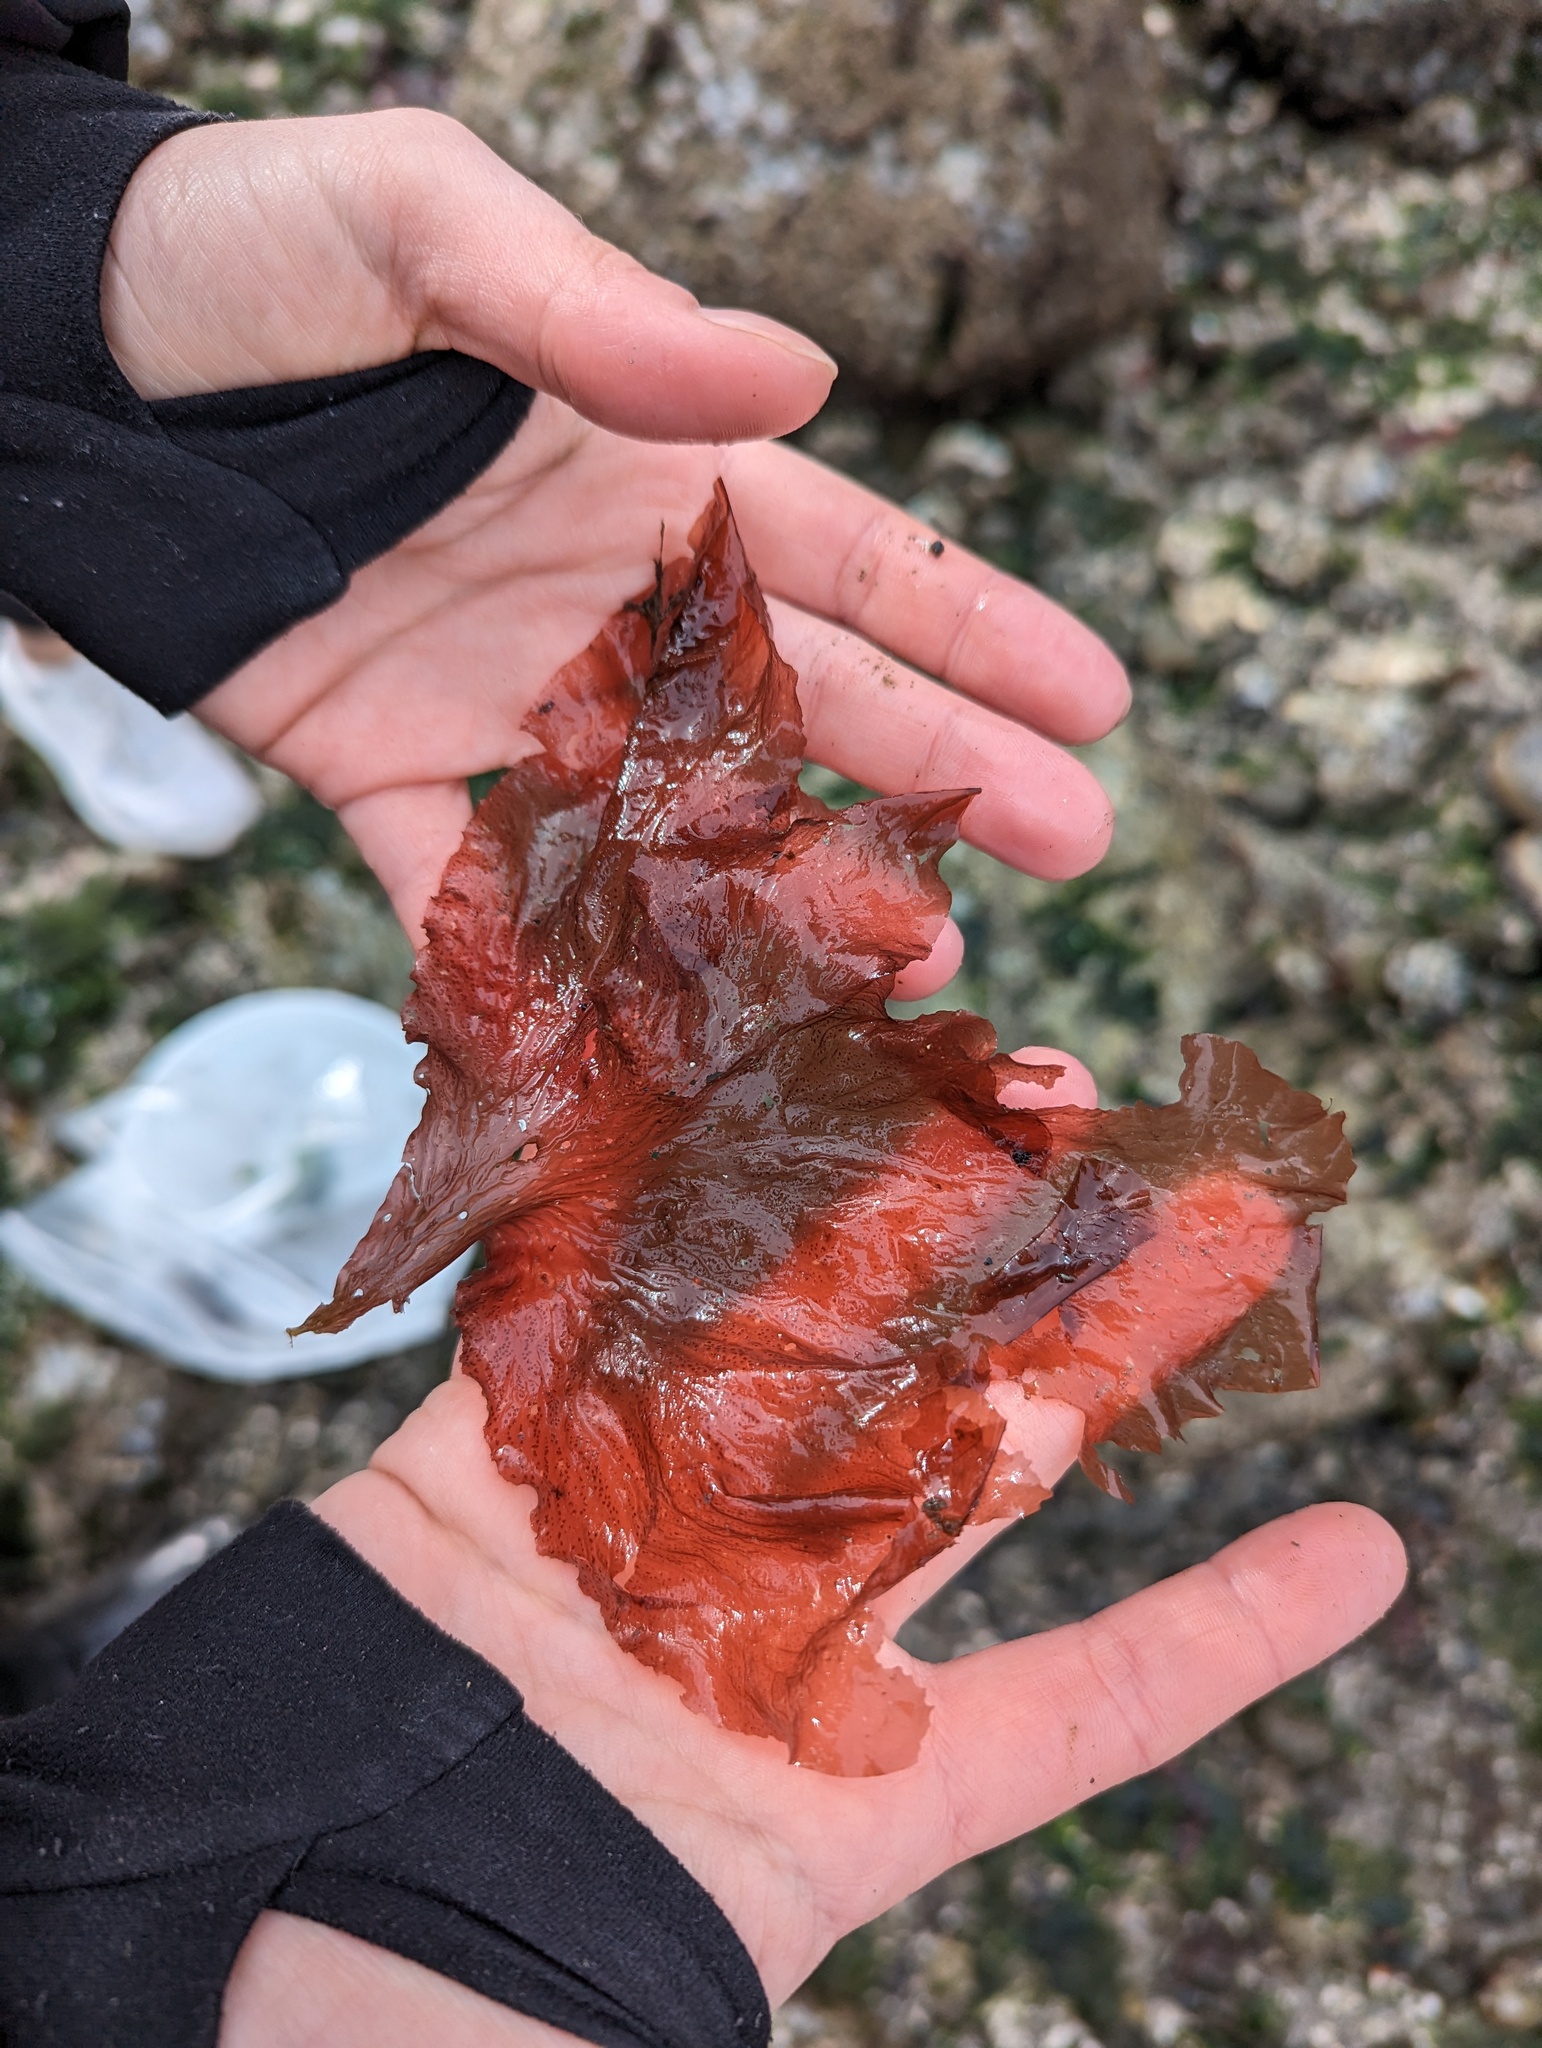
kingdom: Plantae
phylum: Rhodophyta
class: Florideophyceae
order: Ceramiales
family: Delesseriaceae
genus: Polyneura
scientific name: Polyneura latissima
